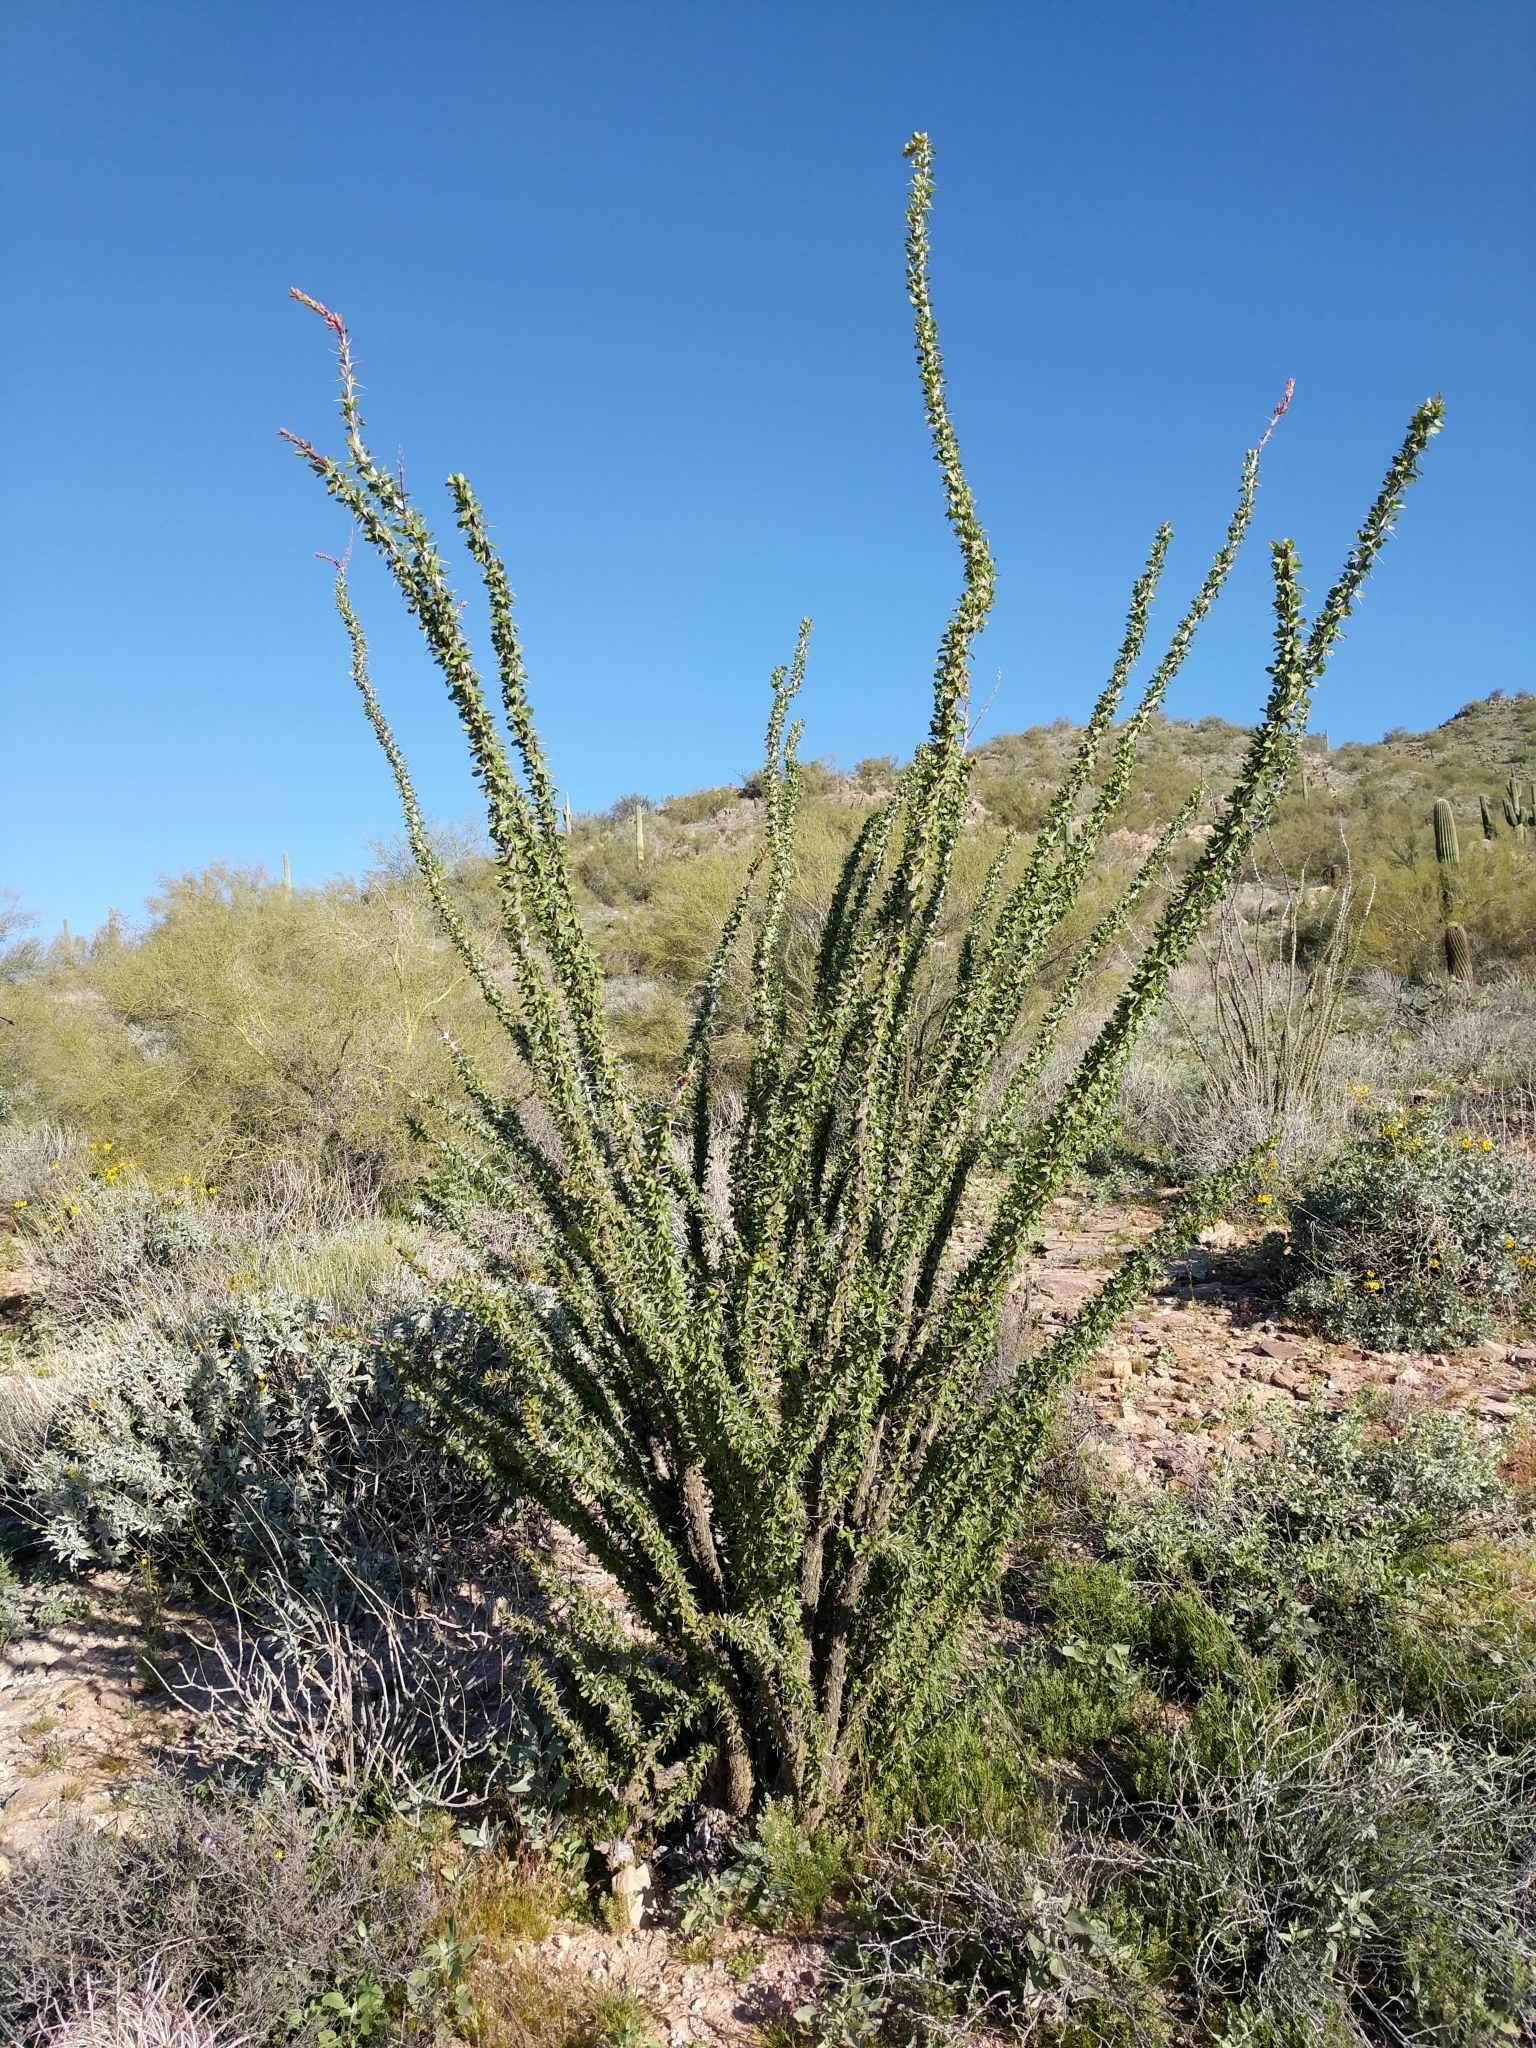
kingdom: Plantae
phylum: Tracheophyta
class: Magnoliopsida
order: Ericales
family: Fouquieriaceae
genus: Fouquieria
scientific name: Fouquieria splendens
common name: Vine-cactus
